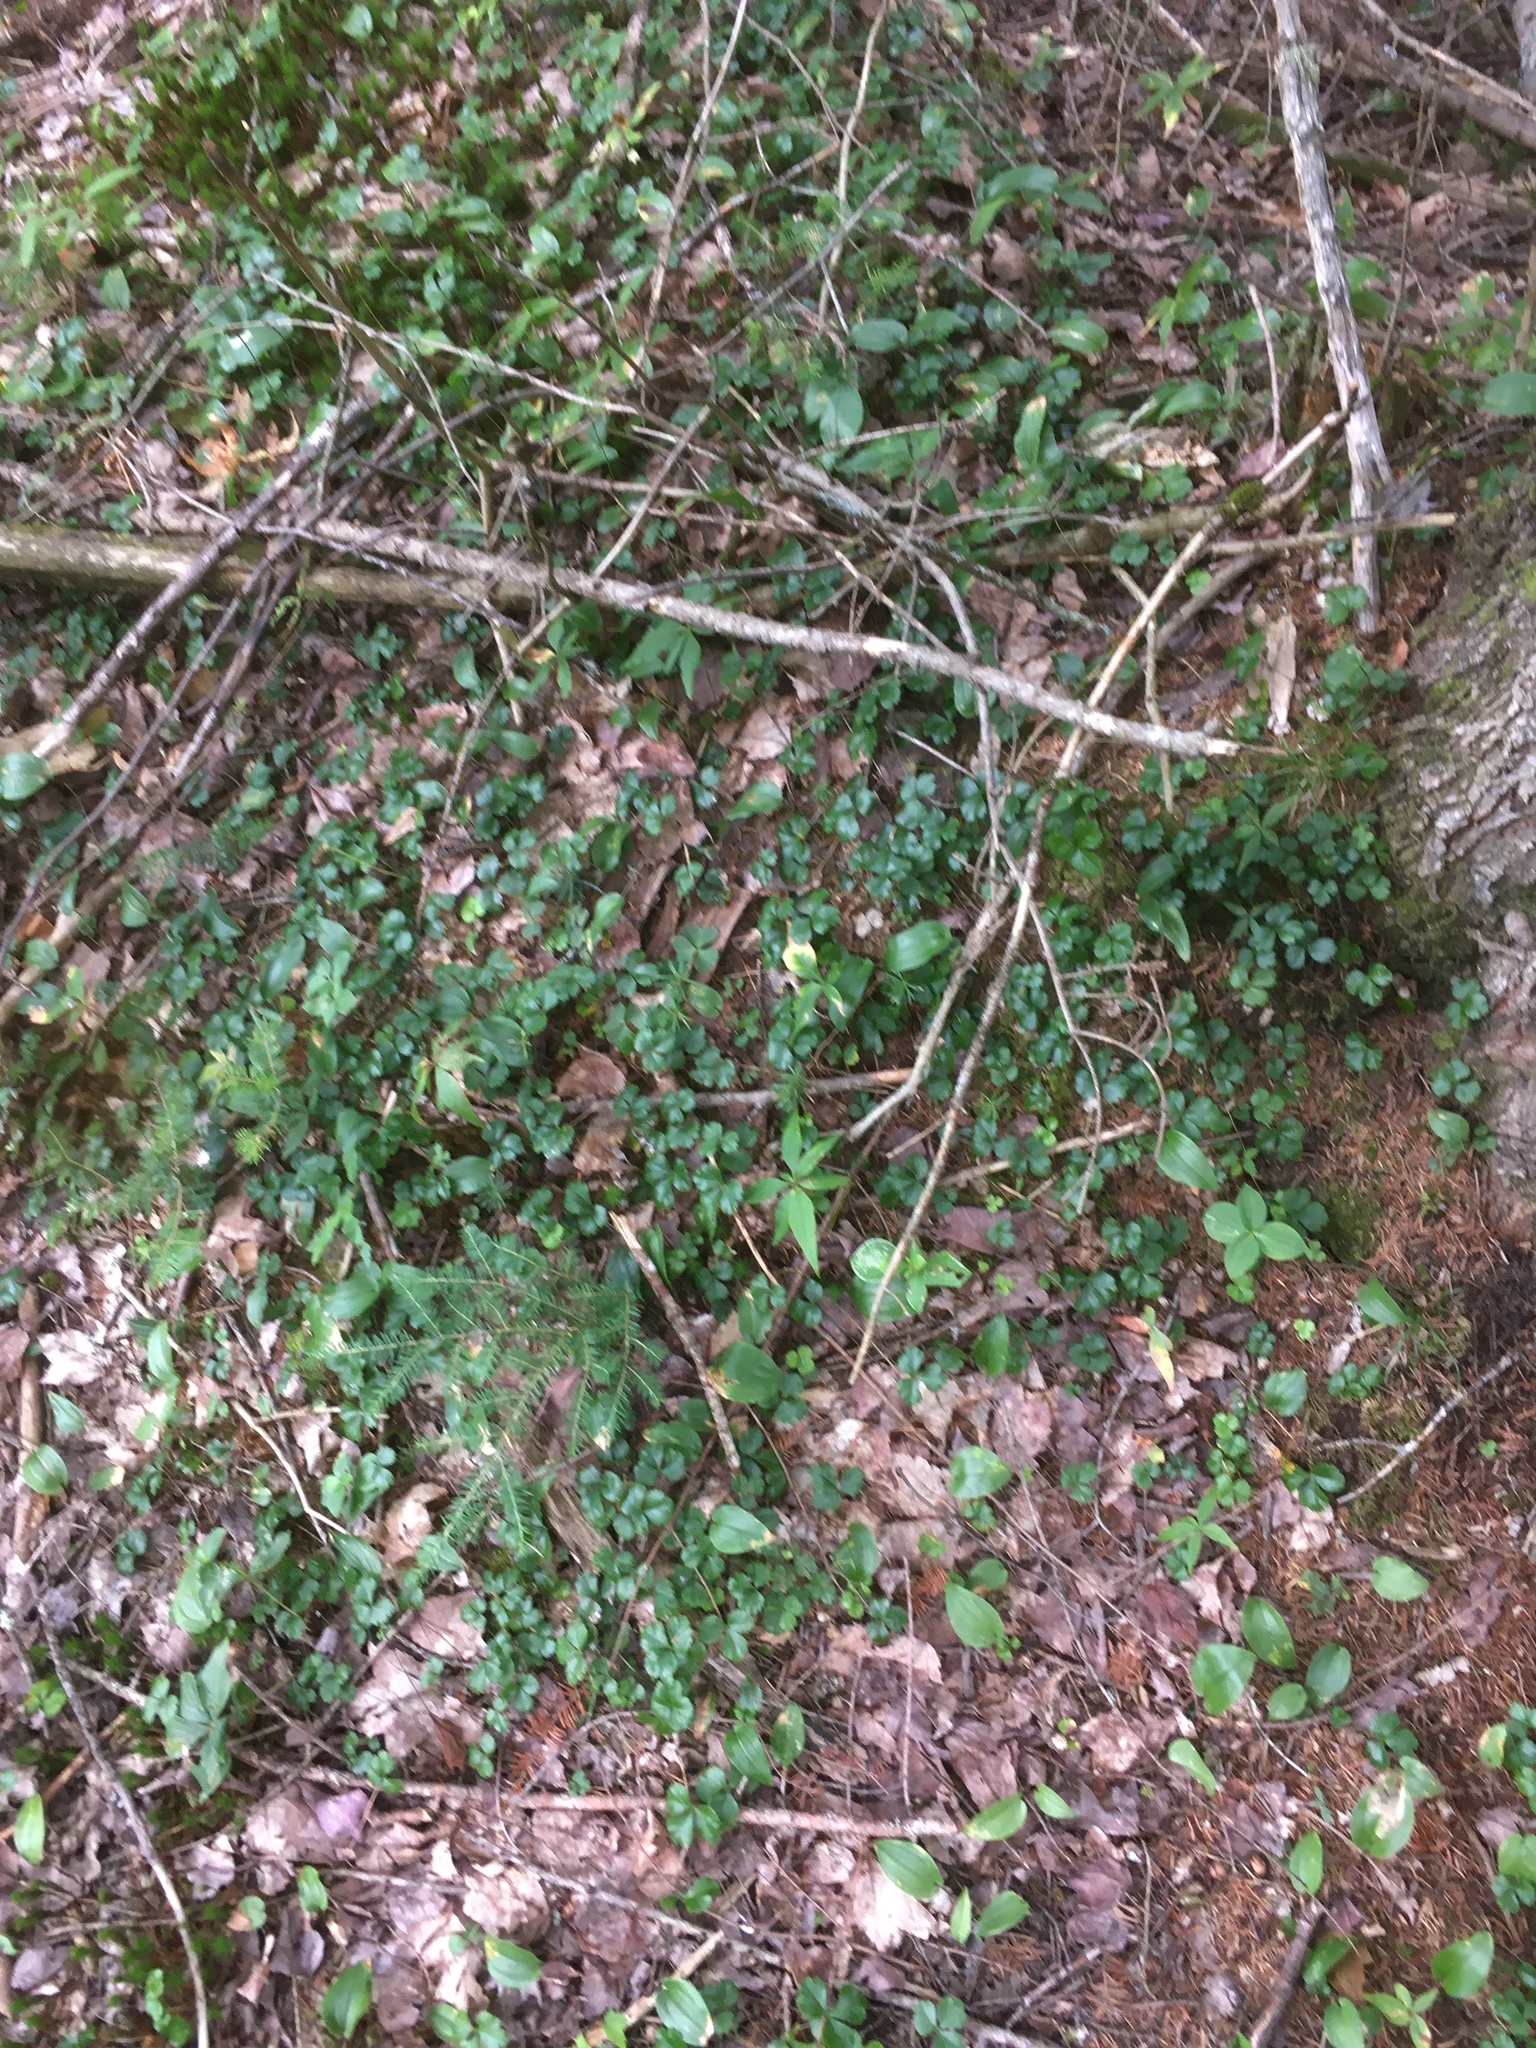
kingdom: Plantae
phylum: Tracheophyta
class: Magnoliopsida
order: Ranunculales
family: Ranunculaceae
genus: Coptis
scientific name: Coptis trifolia
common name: Canker-root
